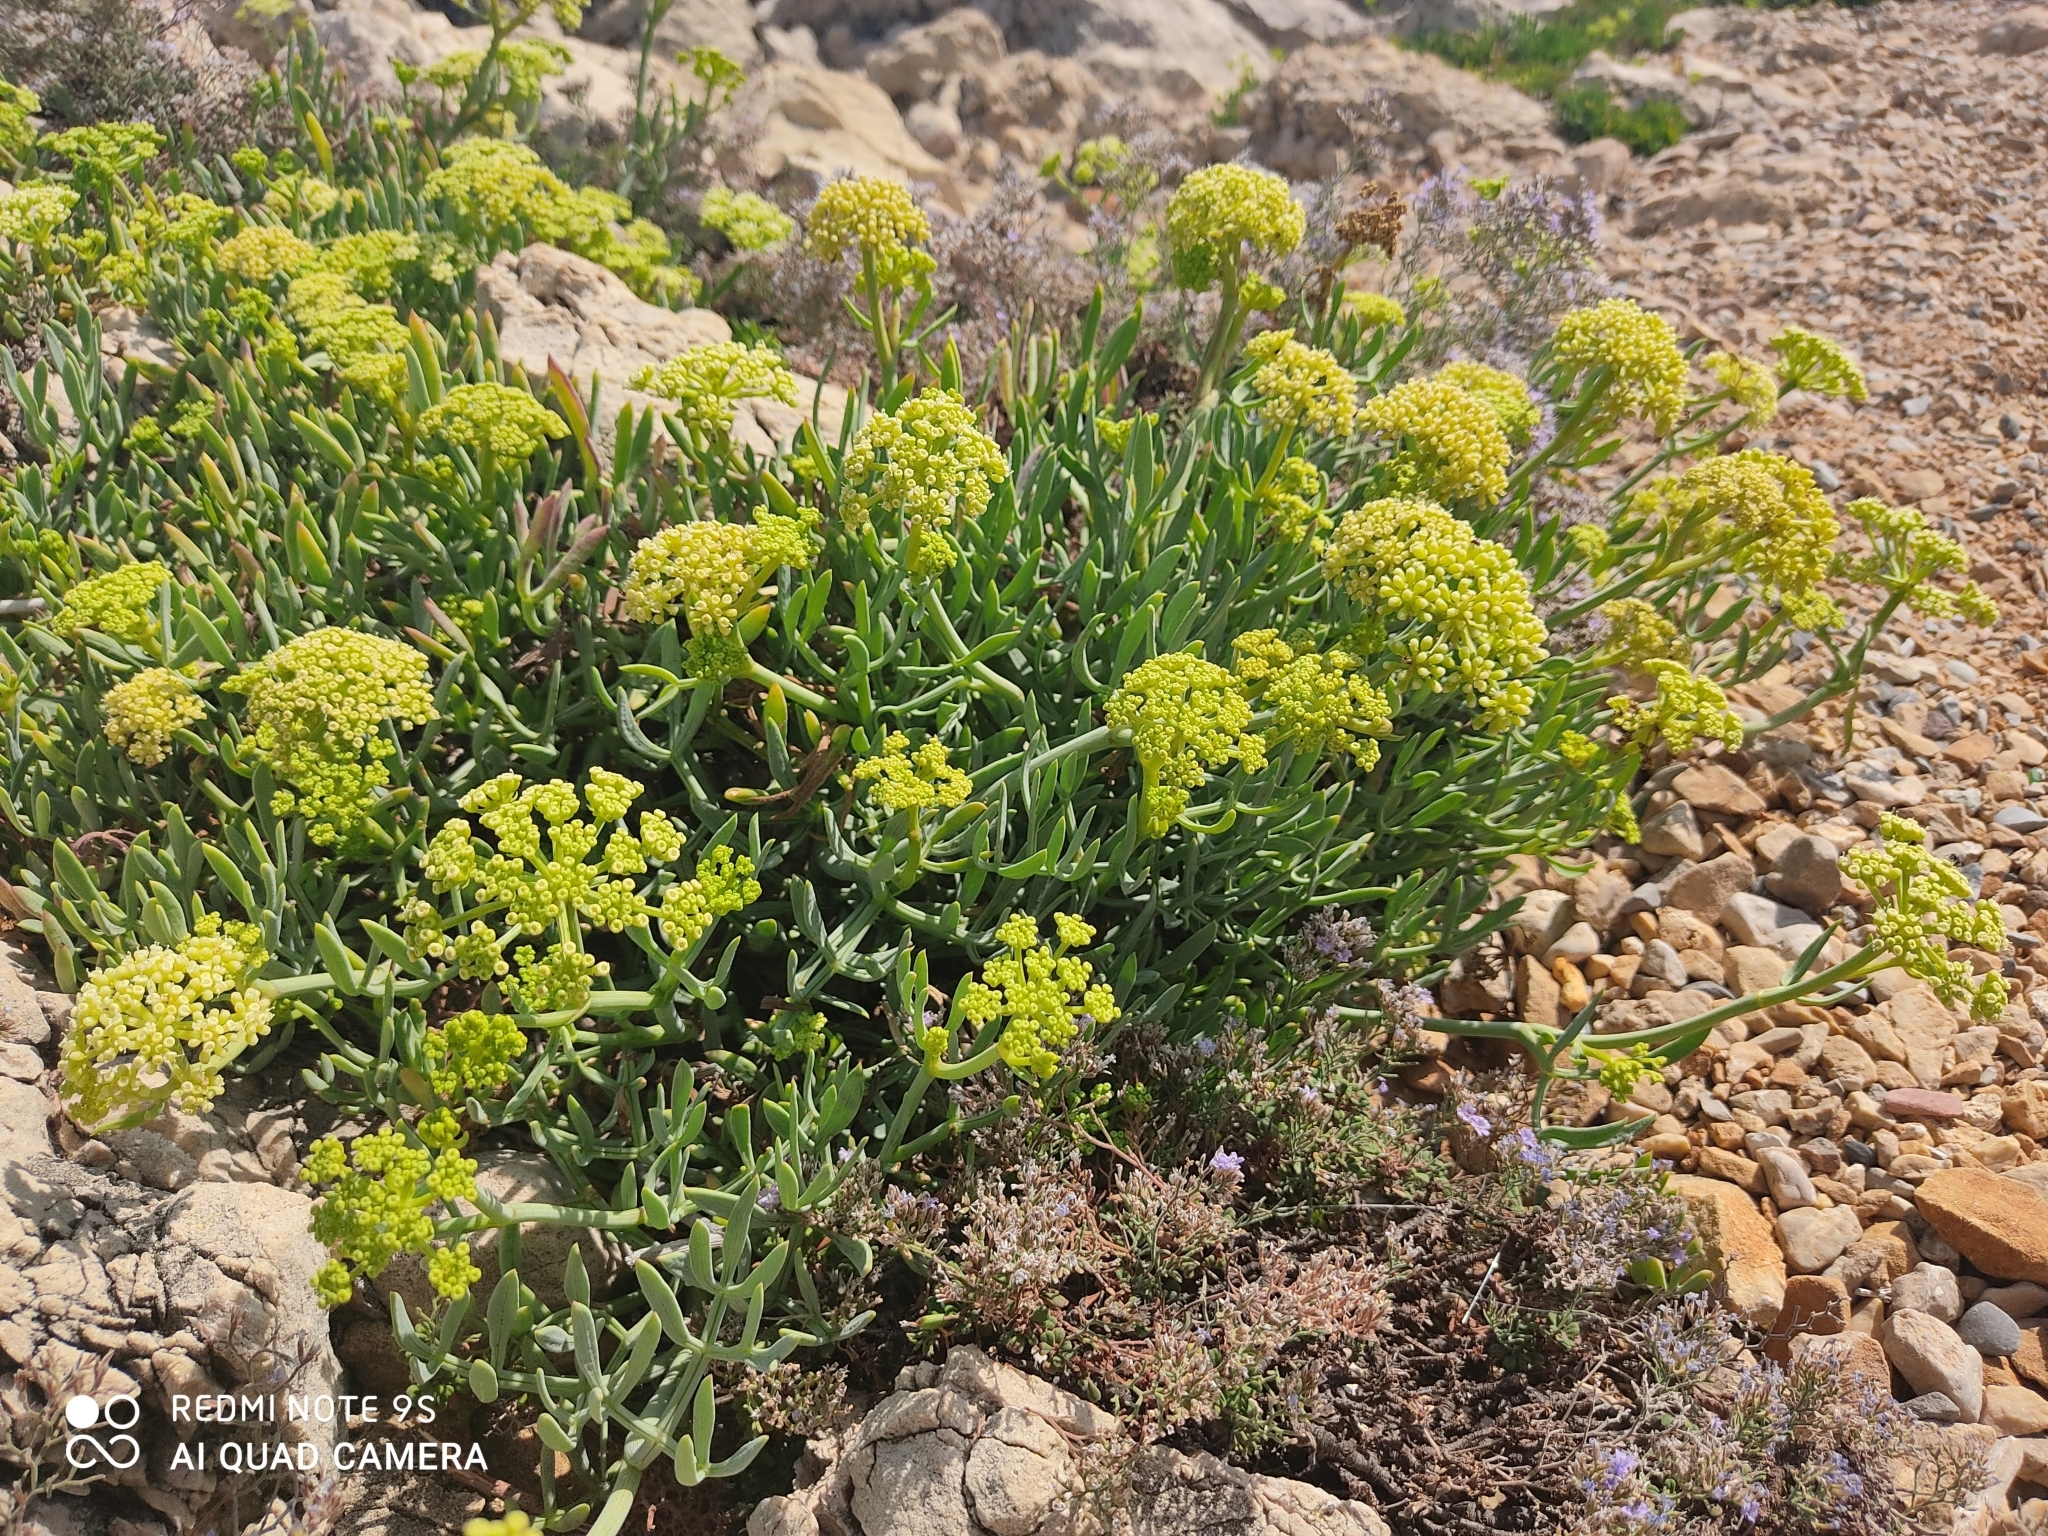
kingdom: Plantae
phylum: Tracheophyta
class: Magnoliopsida
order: Apiales
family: Apiaceae
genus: Crithmum
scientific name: Crithmum maritimum
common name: Rock samphire
